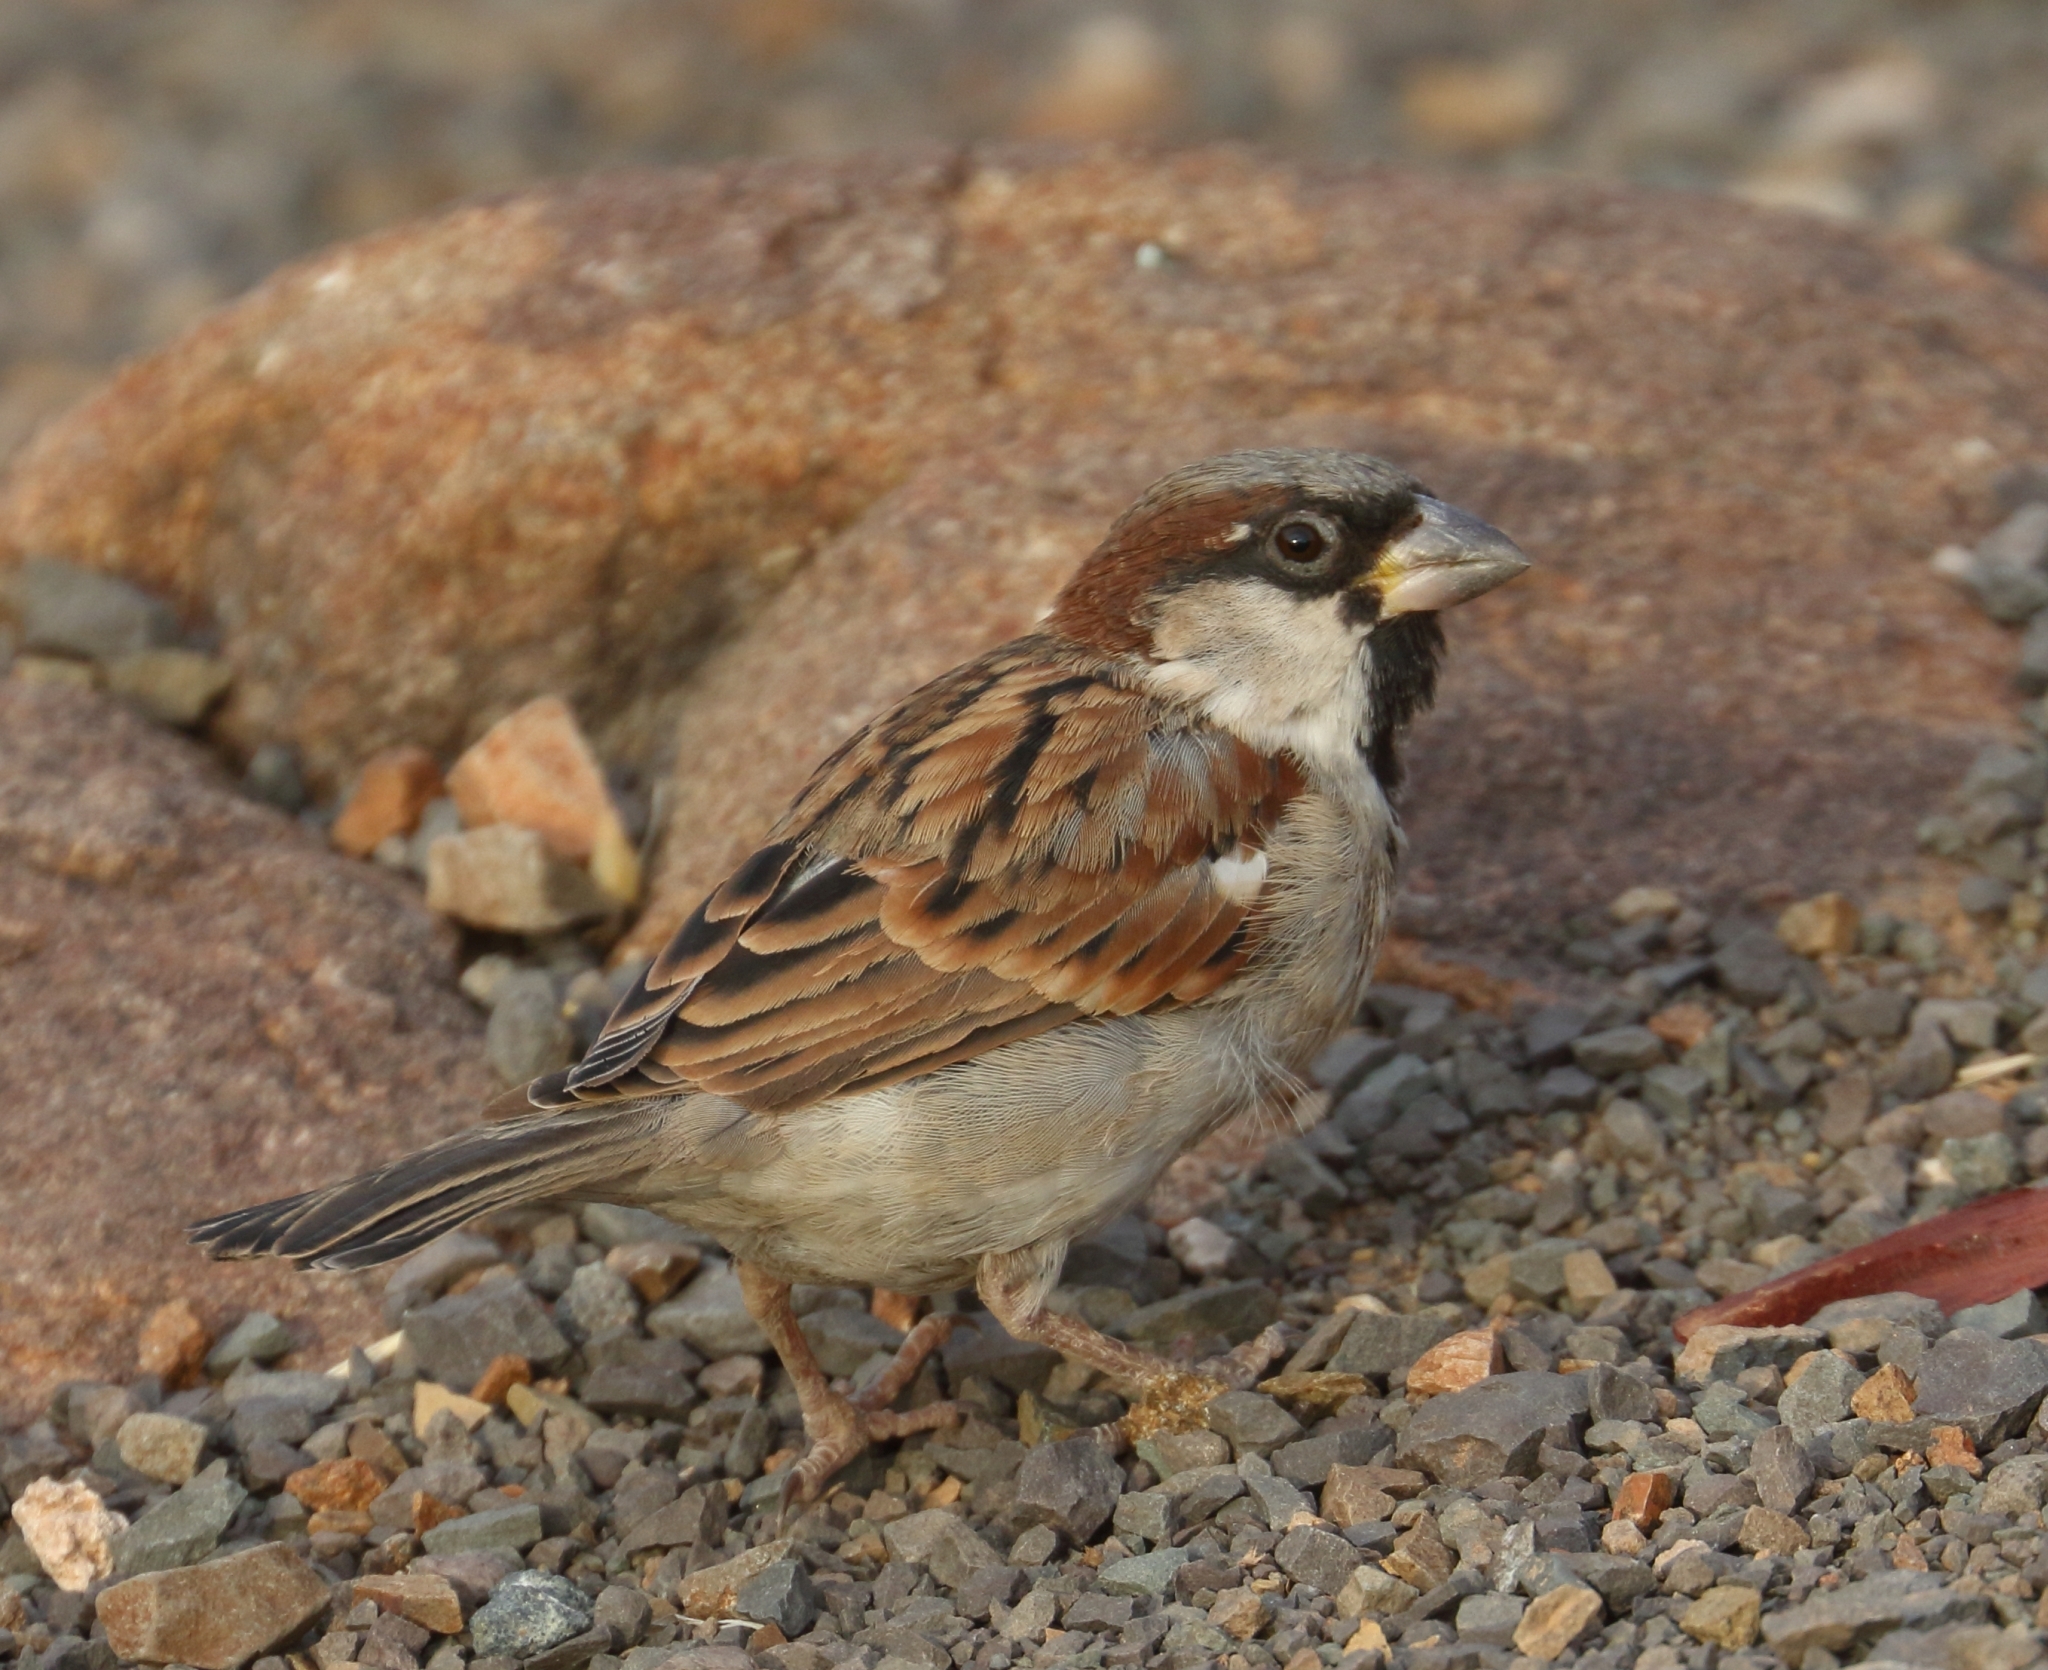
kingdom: Animalia
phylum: Chordata
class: Aves
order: Passeriformes
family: Passeridae
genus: Passer
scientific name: Passer domesticus
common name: House sparrow
